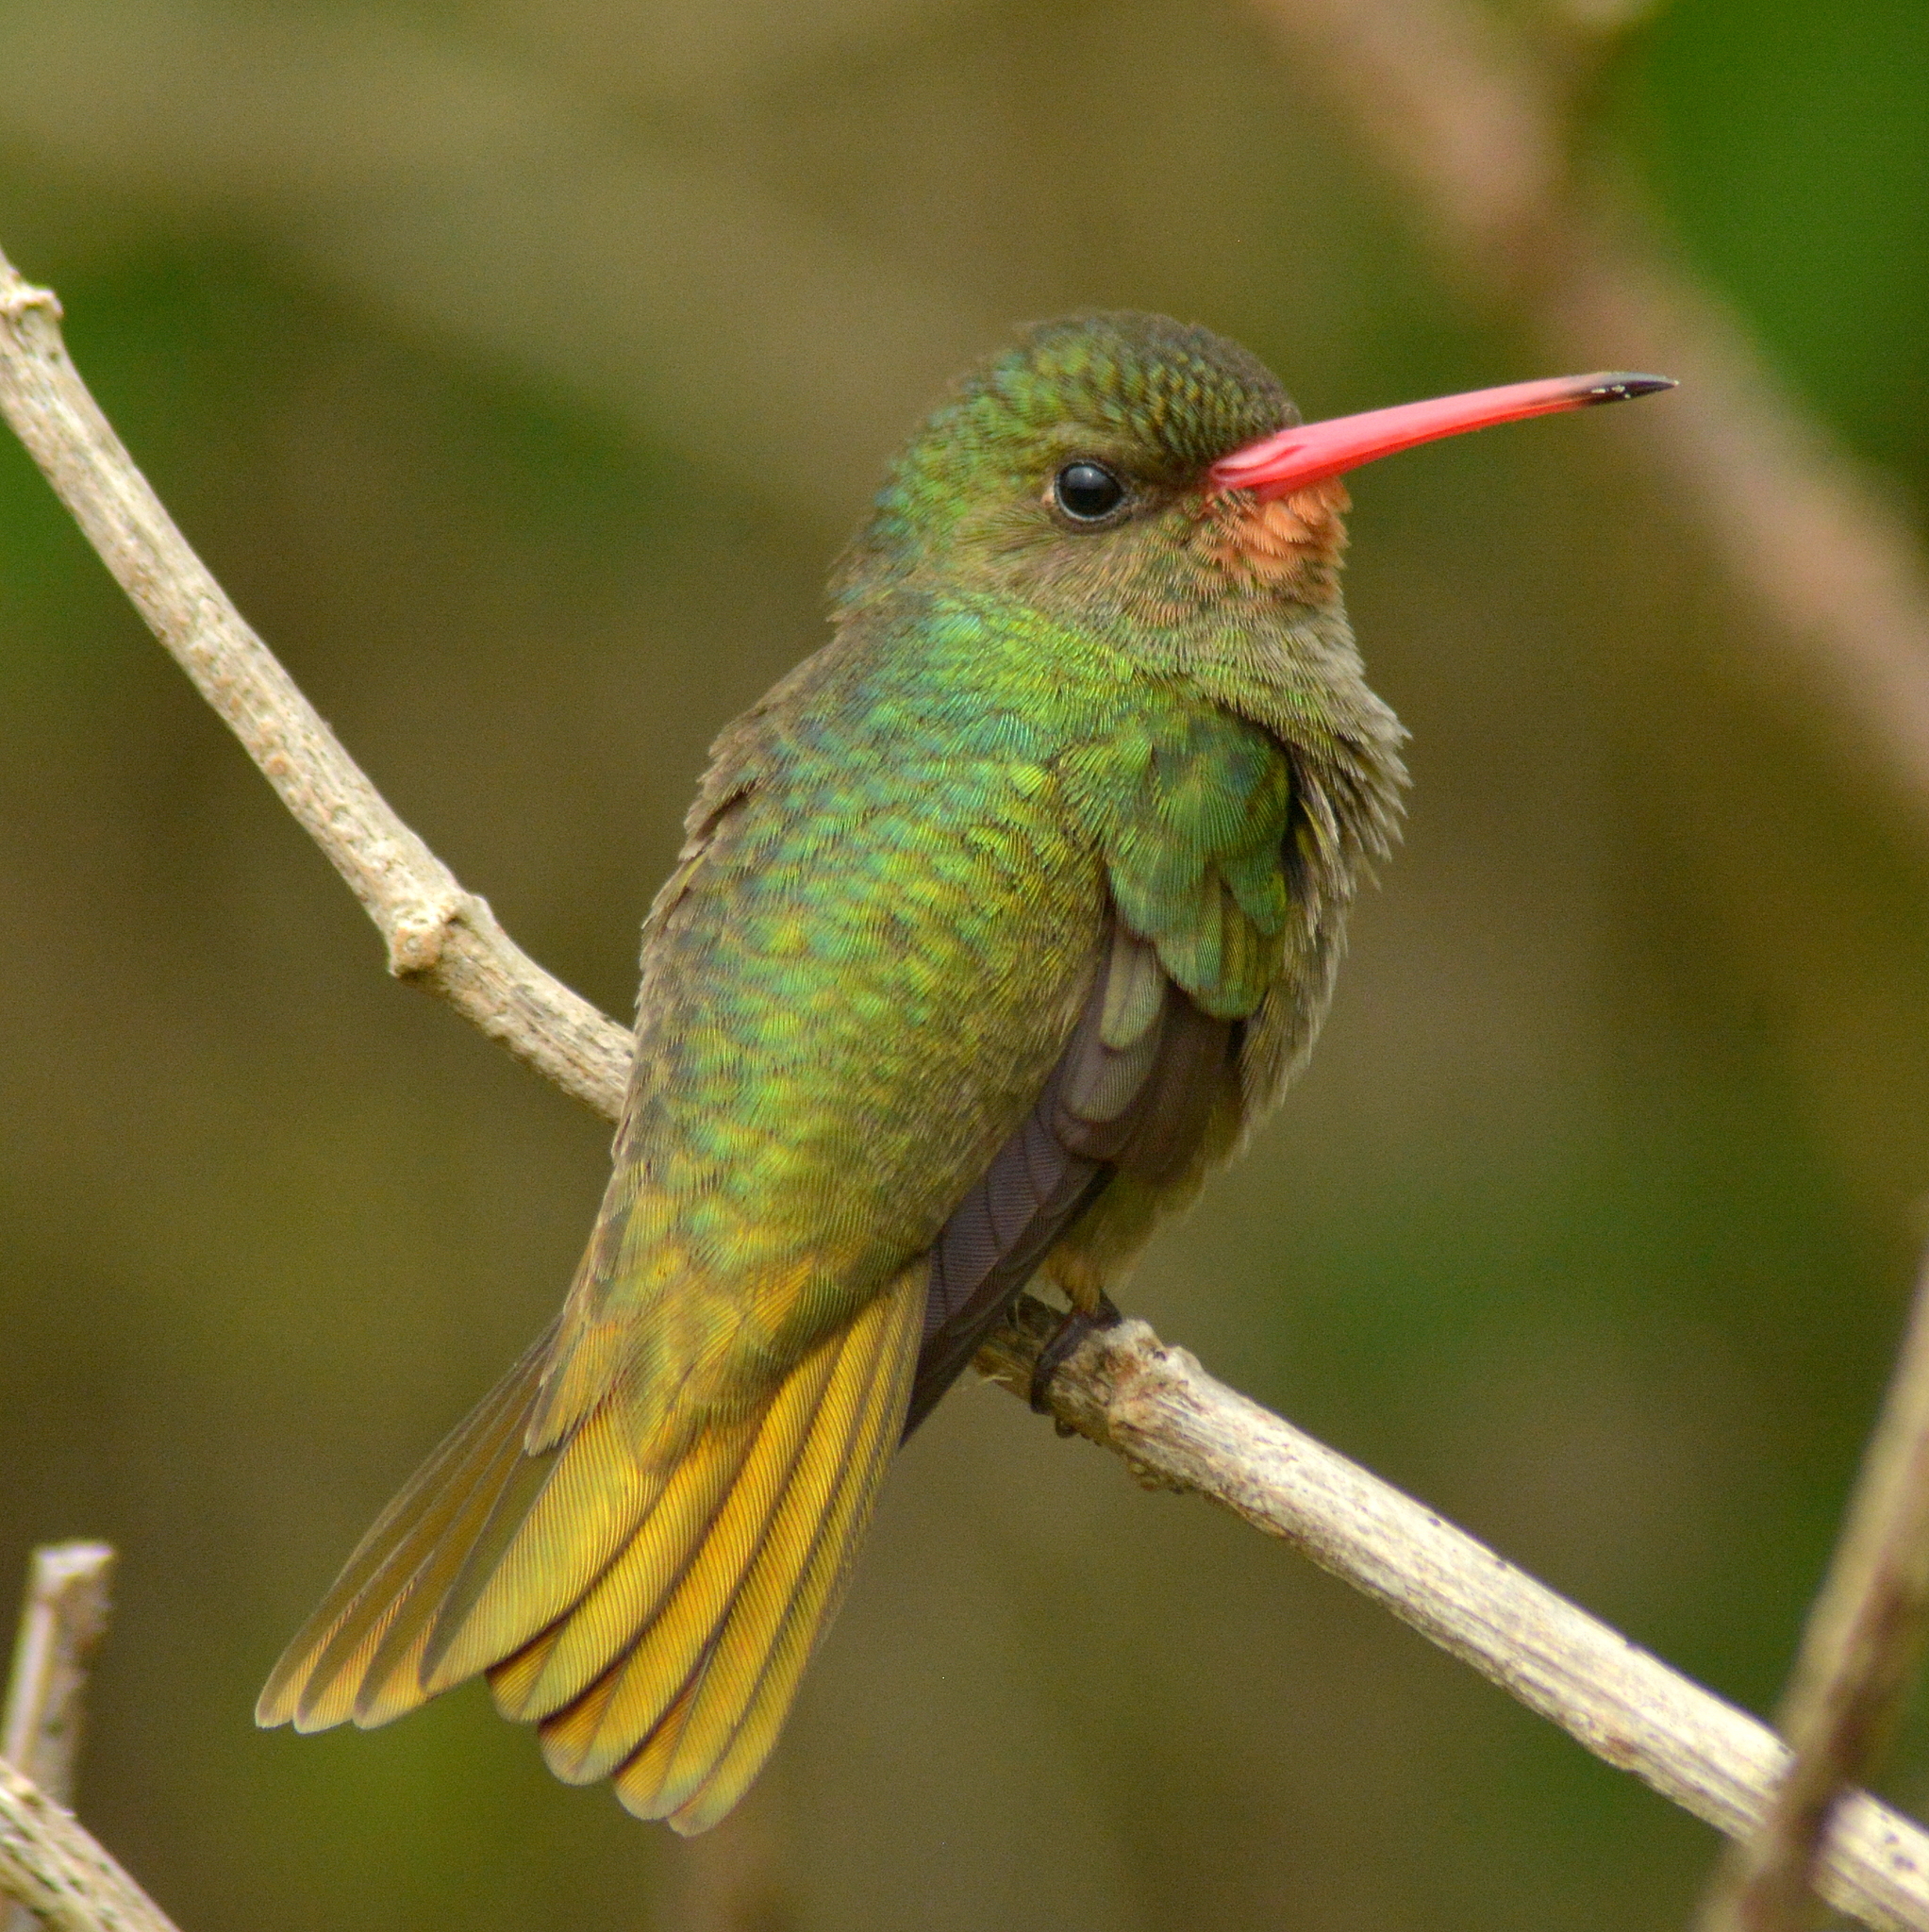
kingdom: Animalia
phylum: Chordata
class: Aves
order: Apodiformes
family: Trochilidae
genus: Hylocharis
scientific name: Hylocharis chrysura
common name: Gilded sapphire
